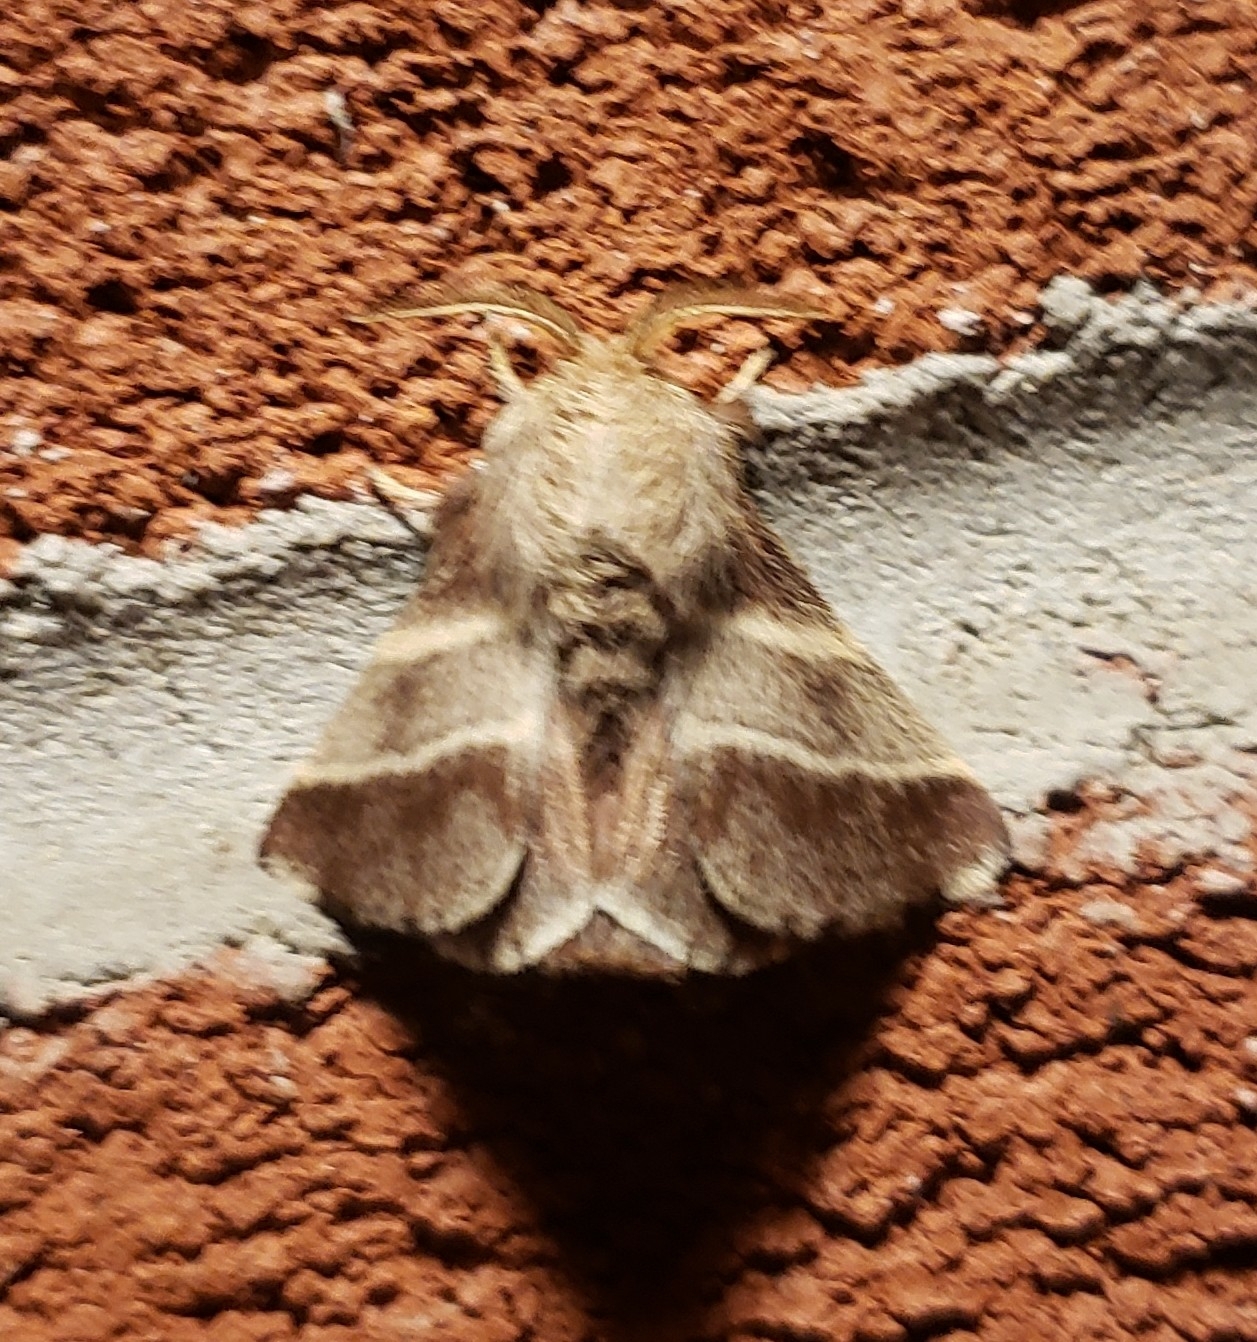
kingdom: Animalia
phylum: Arthropoda
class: Insecta
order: Lepidoptera
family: Lasiocampidae
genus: Malacosoma
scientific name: Malacosoma americana
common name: Eastern tent caterpillar moth
